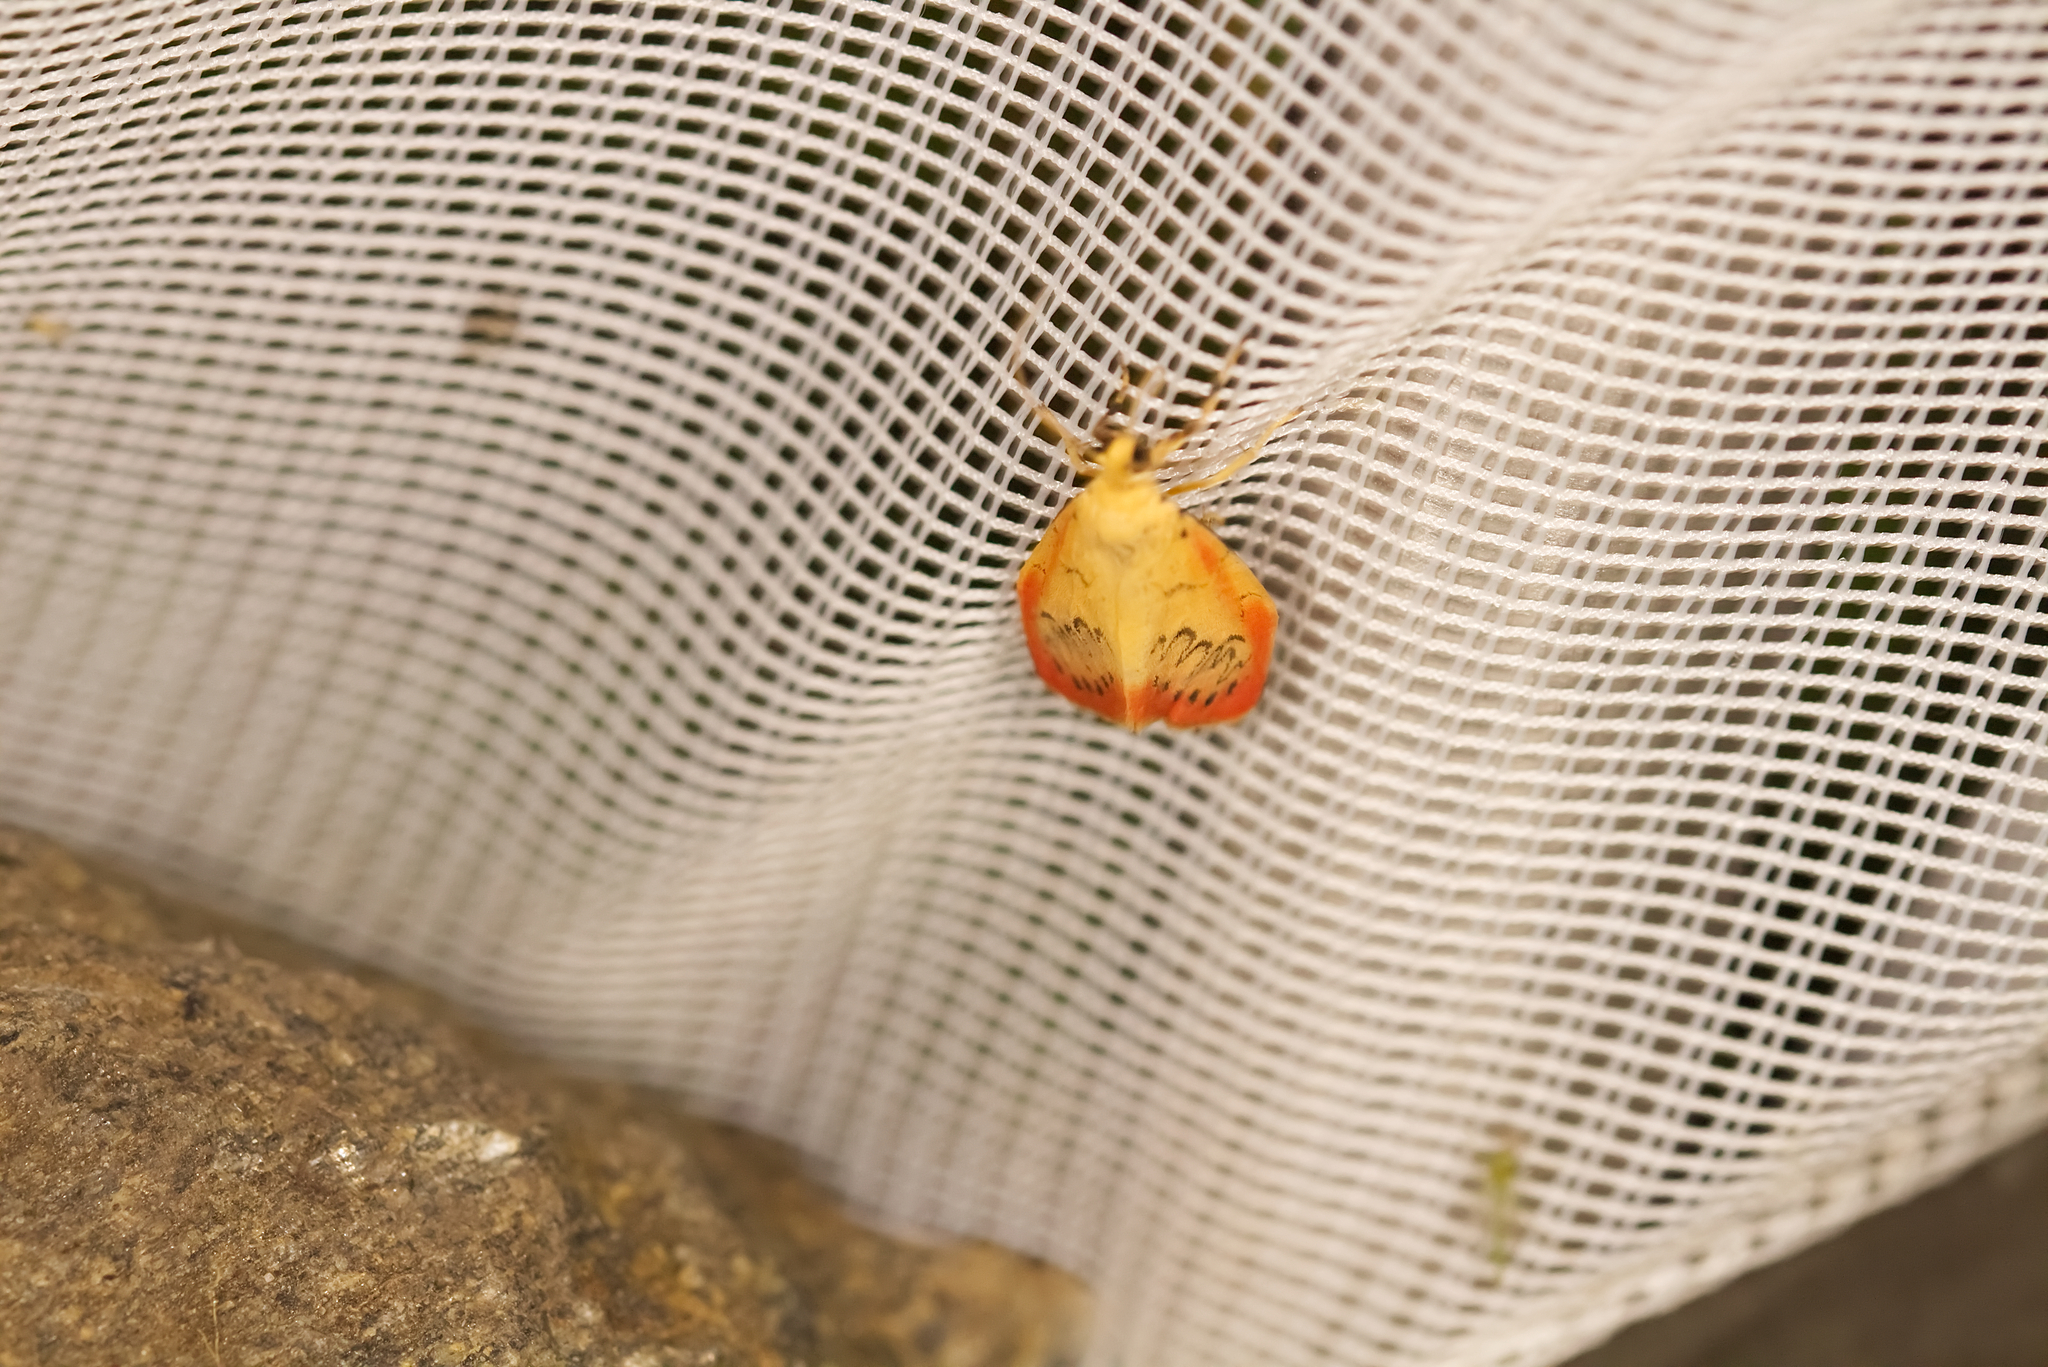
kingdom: Animalia
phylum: Arthropoda
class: Insecta
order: Lepidoptera
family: Erebidae
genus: Miltochrista
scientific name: Miltochrista miniata
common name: Rosy footman
